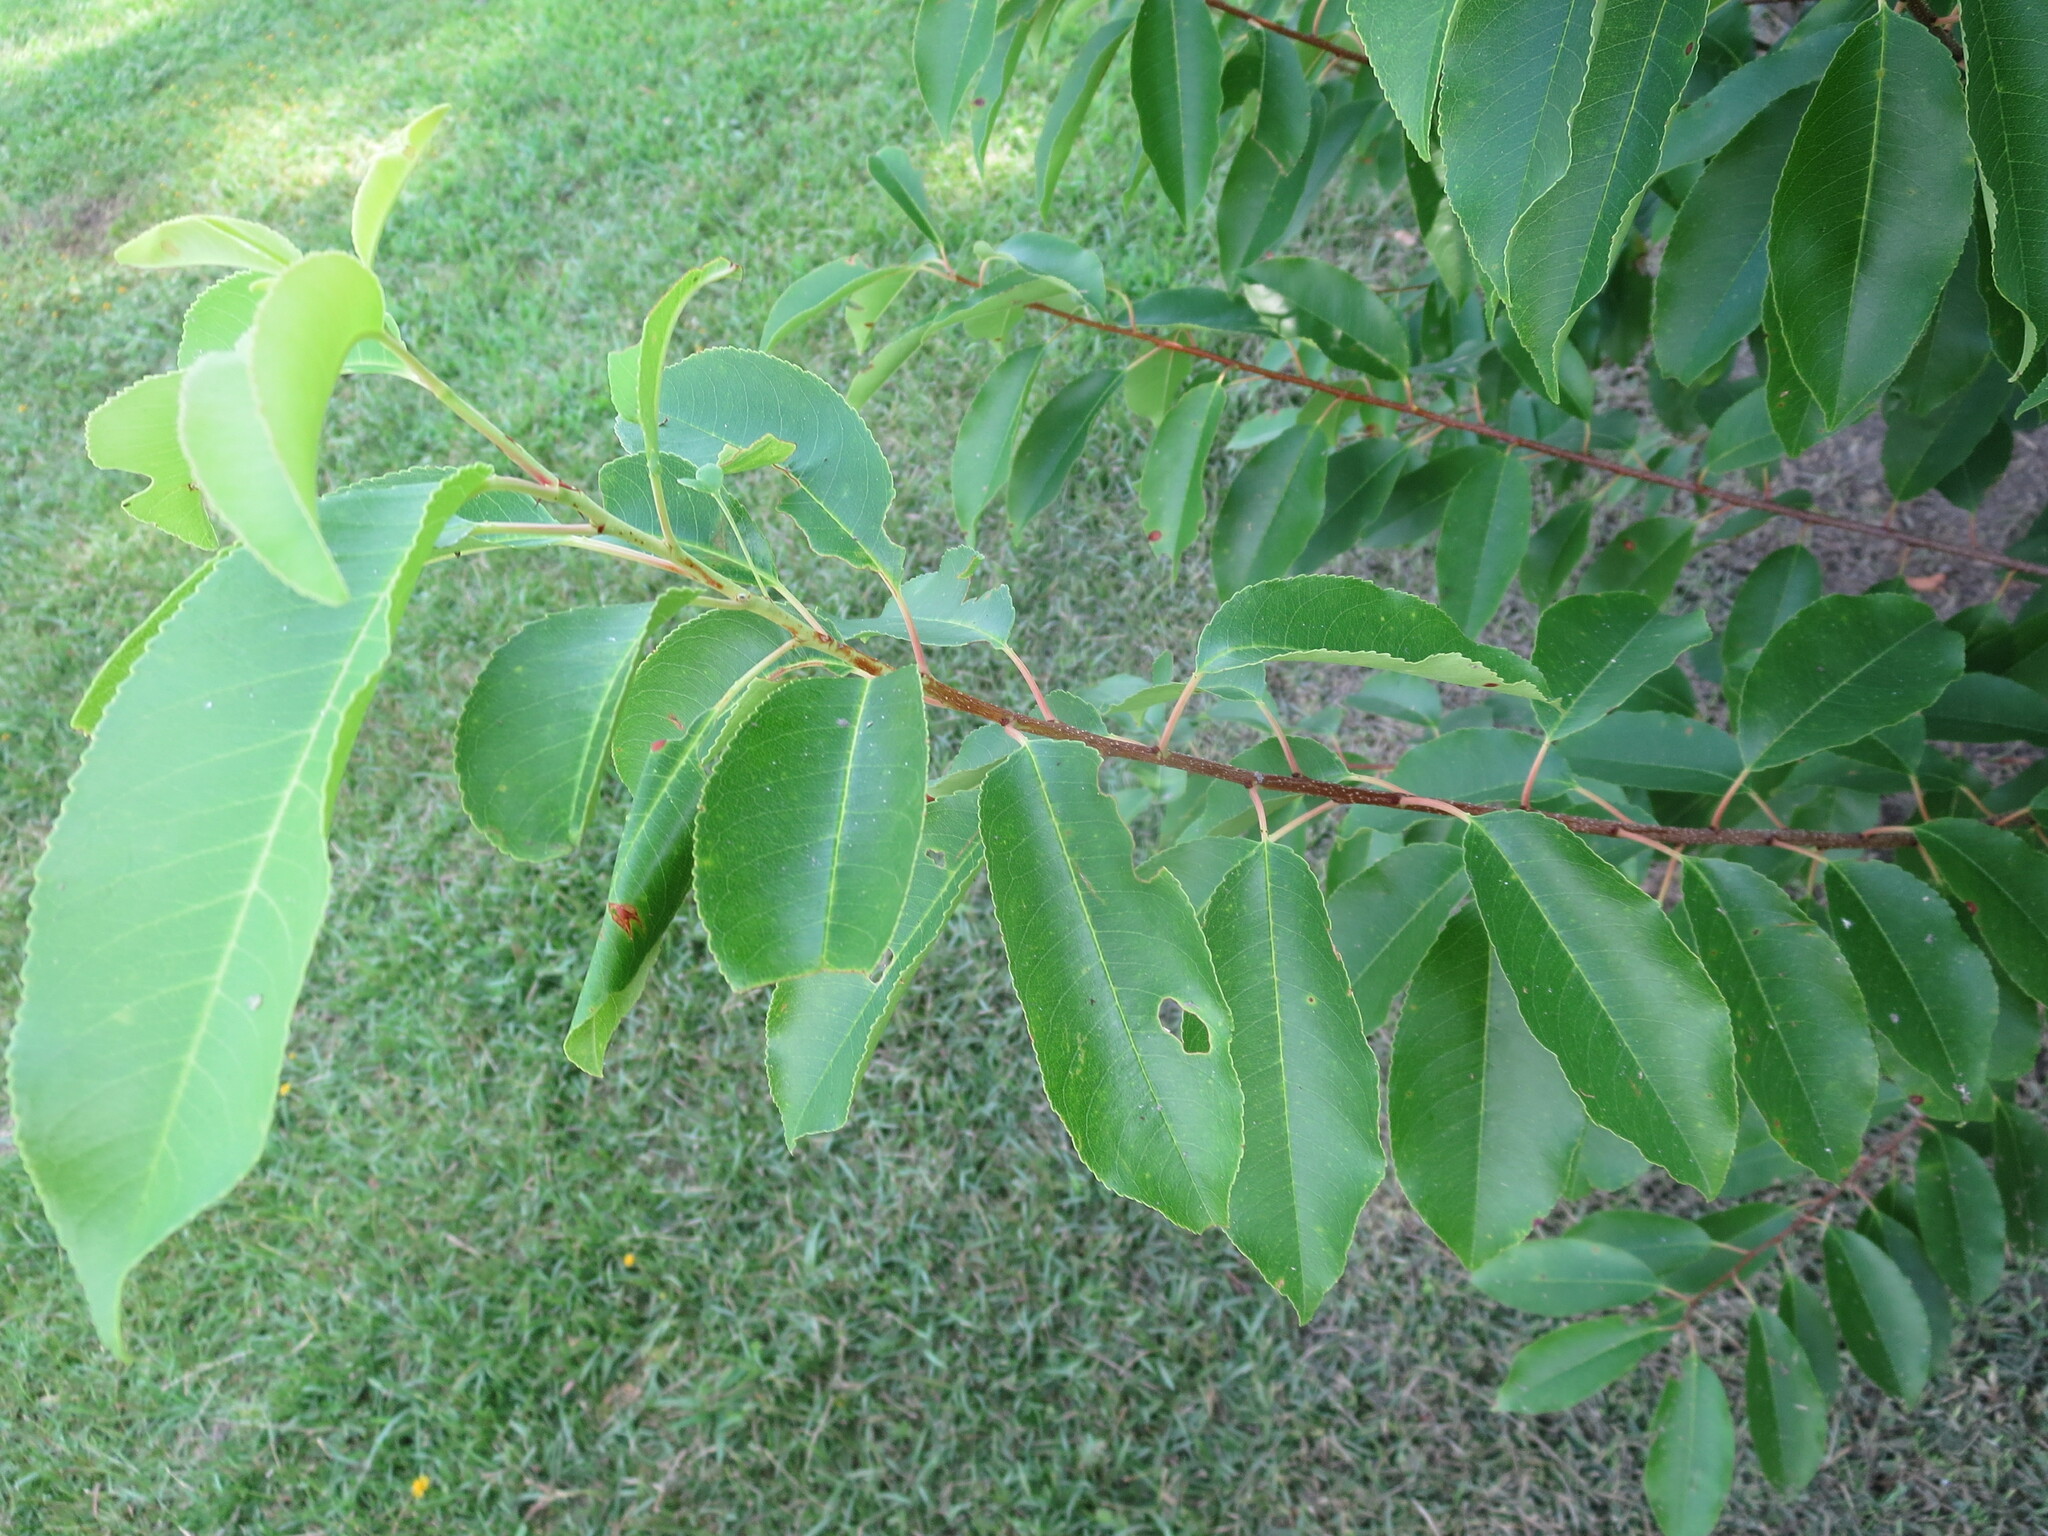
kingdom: Plantae
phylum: Tracheophyta
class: Magnoliopsida
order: Rosales
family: Rosaceae
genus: Prunus
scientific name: Prunus serotina
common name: Black cherry
